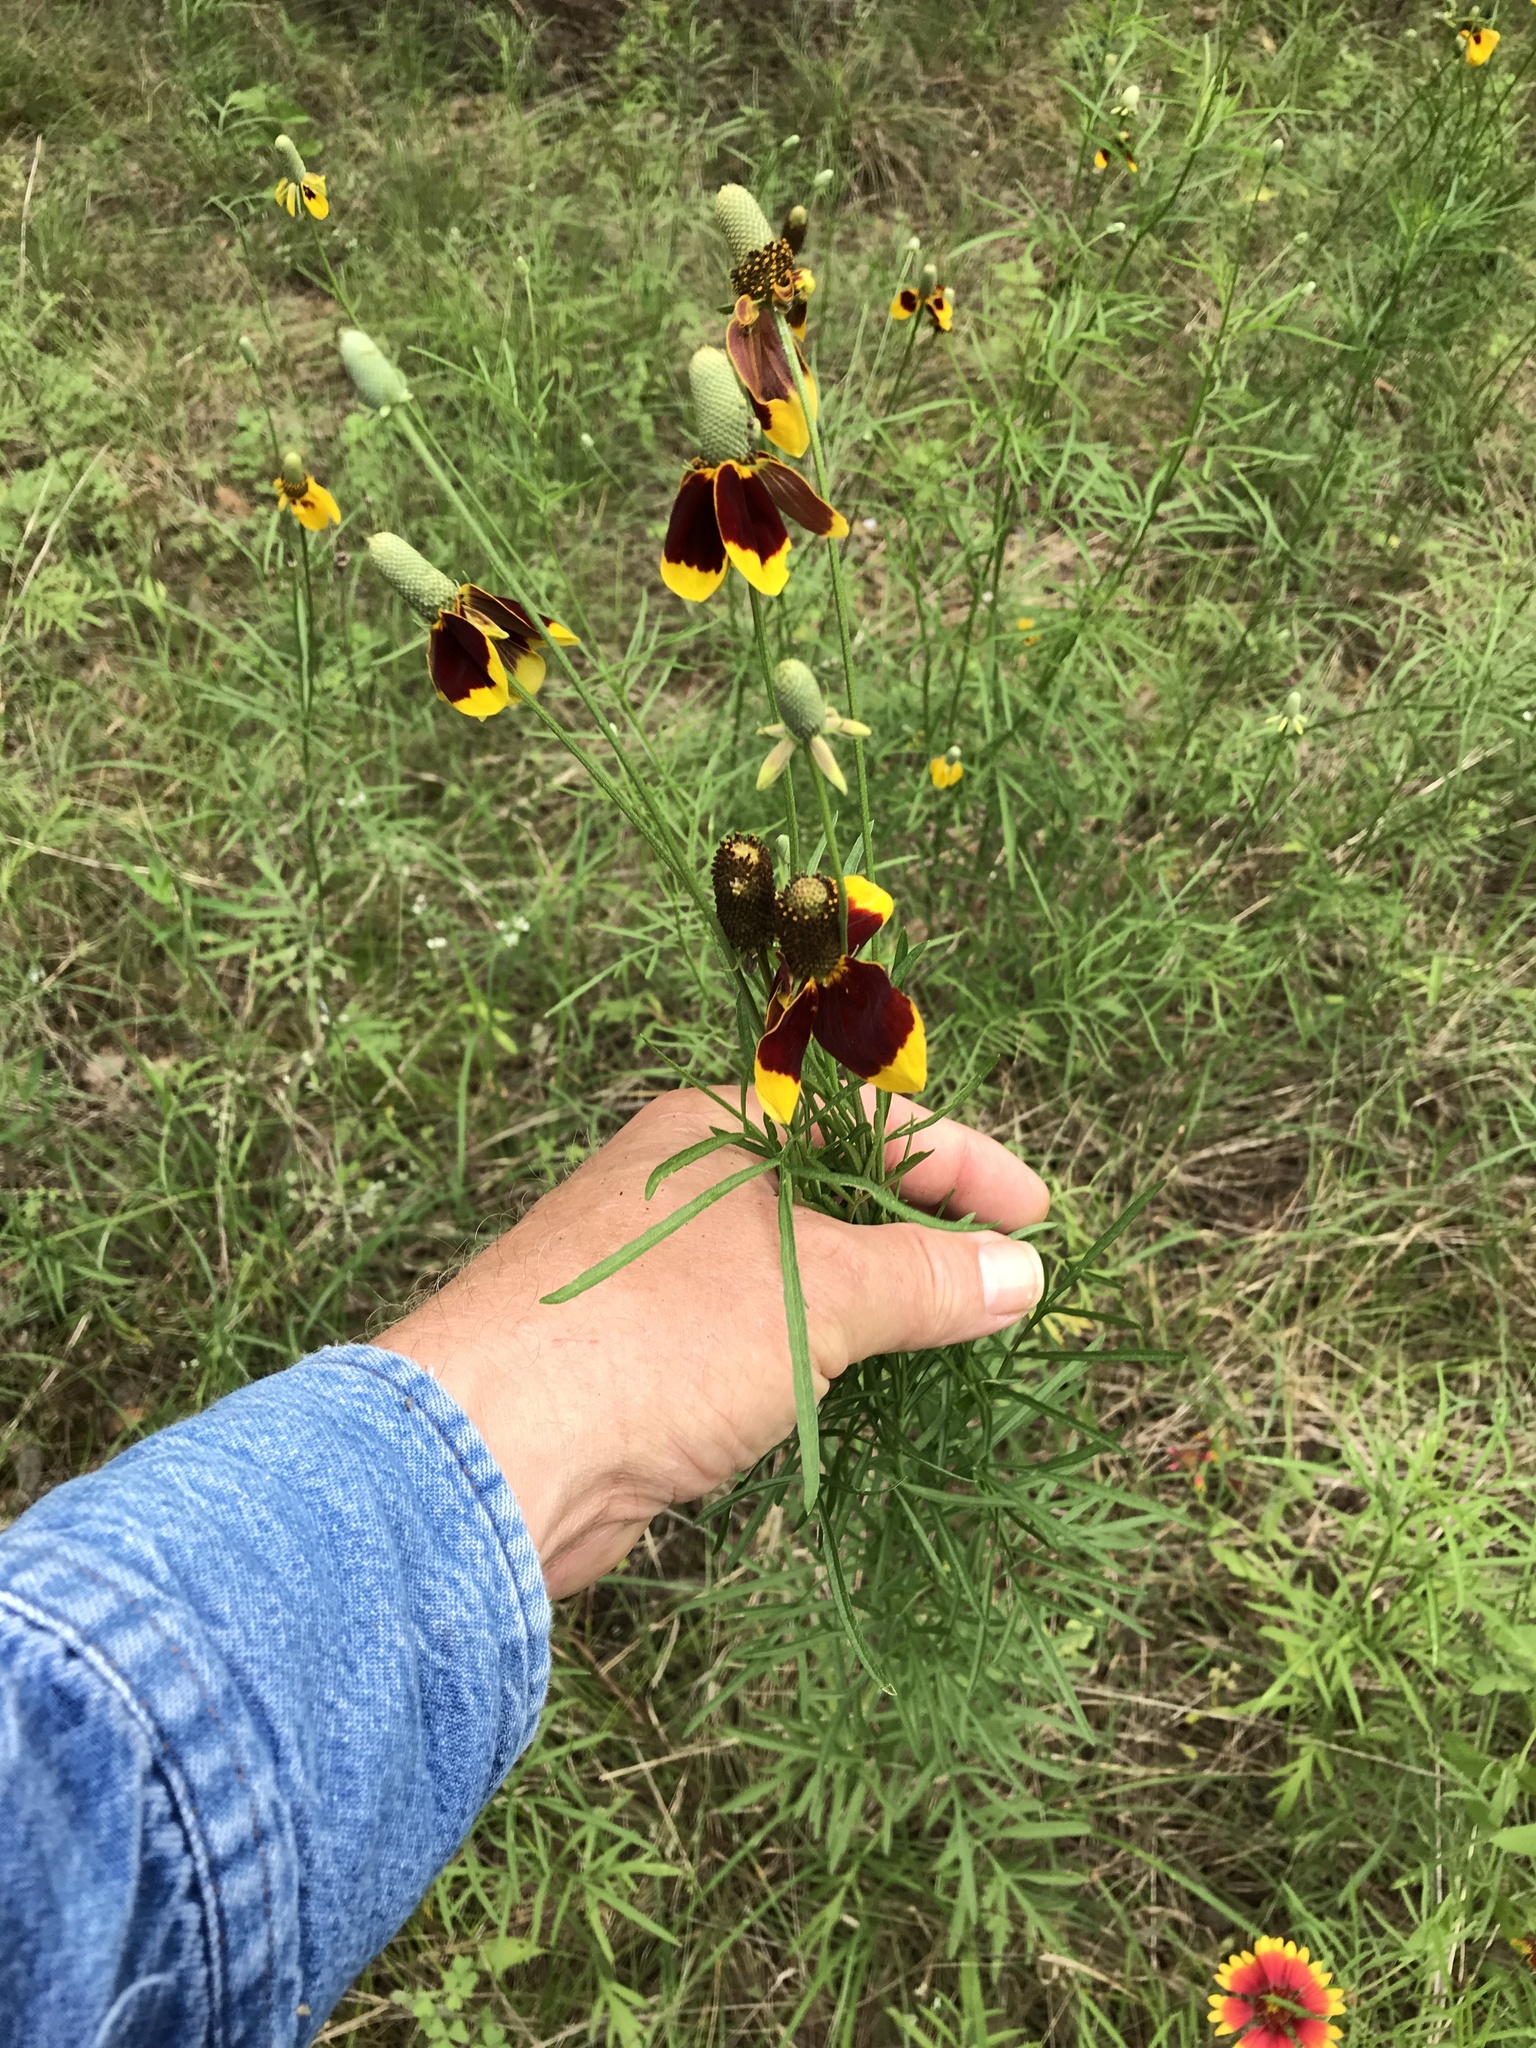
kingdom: Plantae
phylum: Tracheophyta
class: Magnoliopsida
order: Asterales
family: Asteraceae
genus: Ratibida
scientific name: Ratibida columnifera
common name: Prairie coneflower
